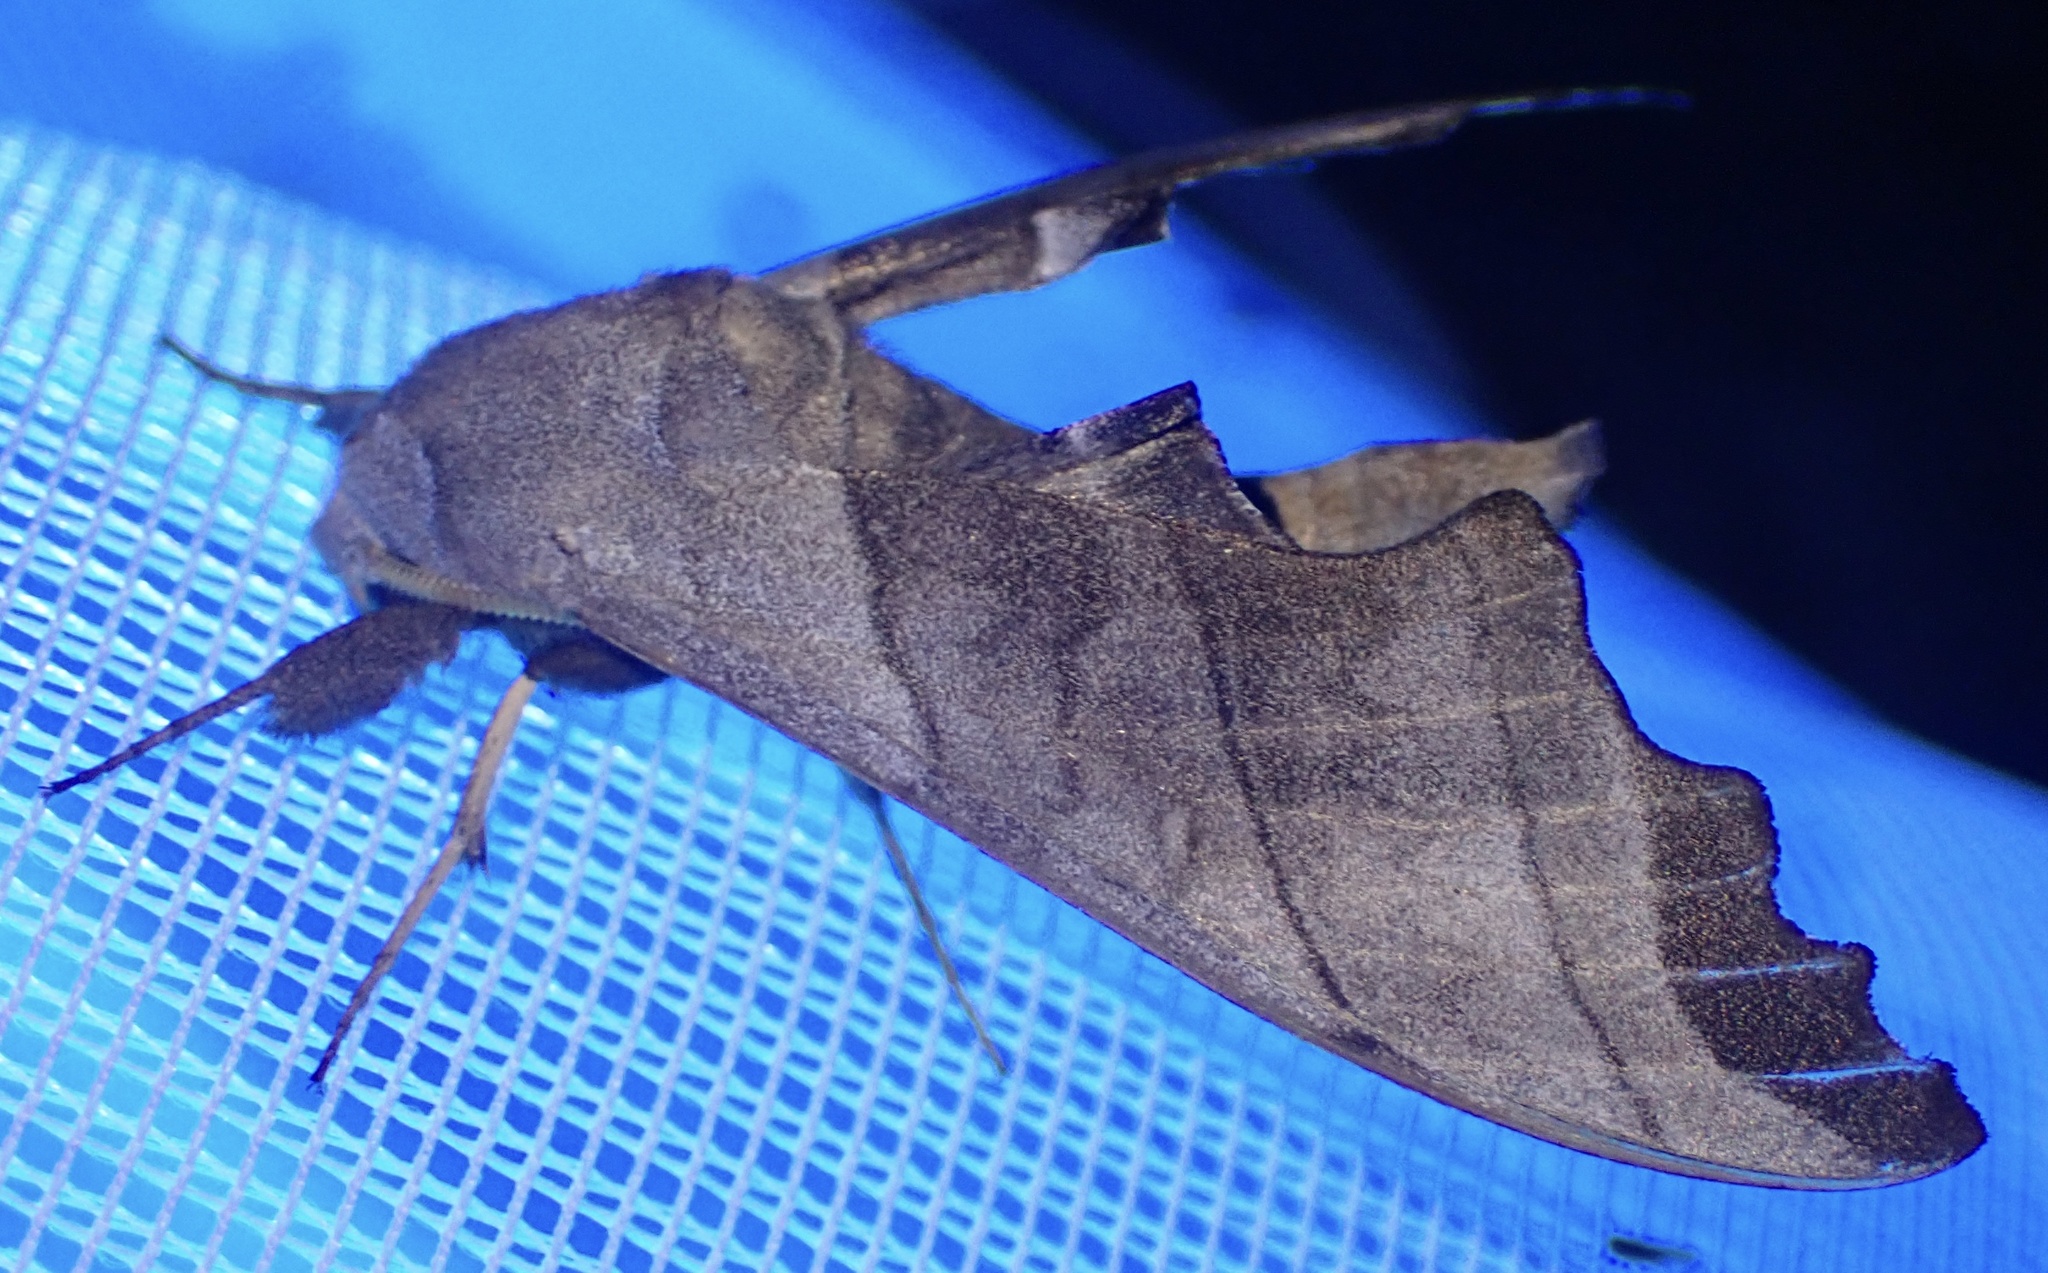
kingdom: Animalia
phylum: Arthropoda
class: Insecta
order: Lepidoptera
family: Sphingidae
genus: Polyptychoides
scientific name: Polyptychoides niloticus
